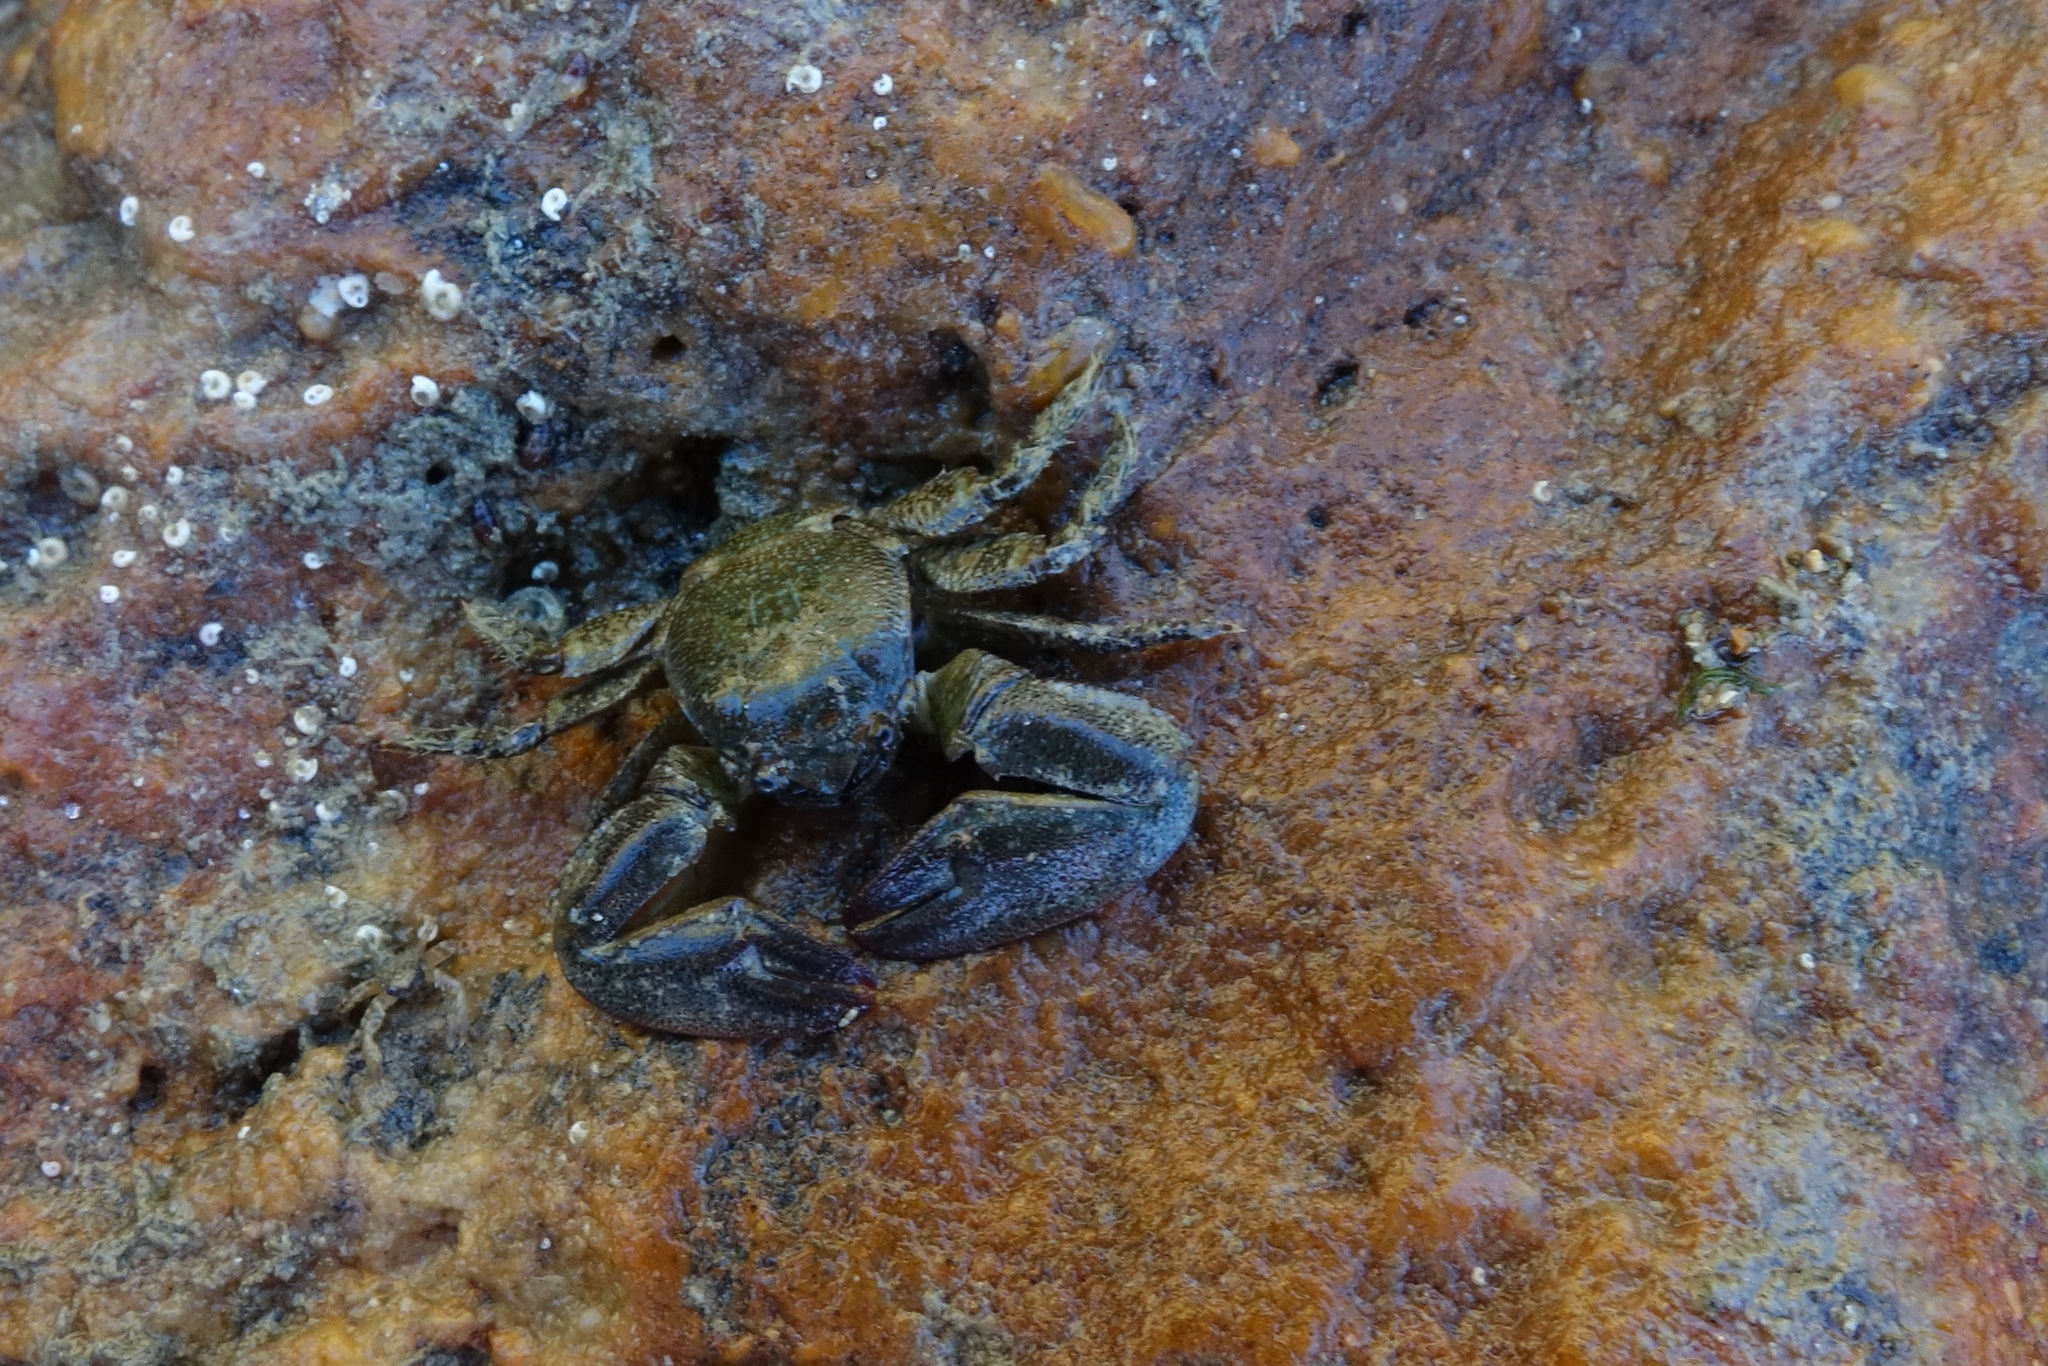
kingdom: Animalia
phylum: Arthropoda
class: Malacostraca
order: Decapoda
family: Porcellanidae
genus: Petrolisthes
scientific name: Petrolisthes elongatus
